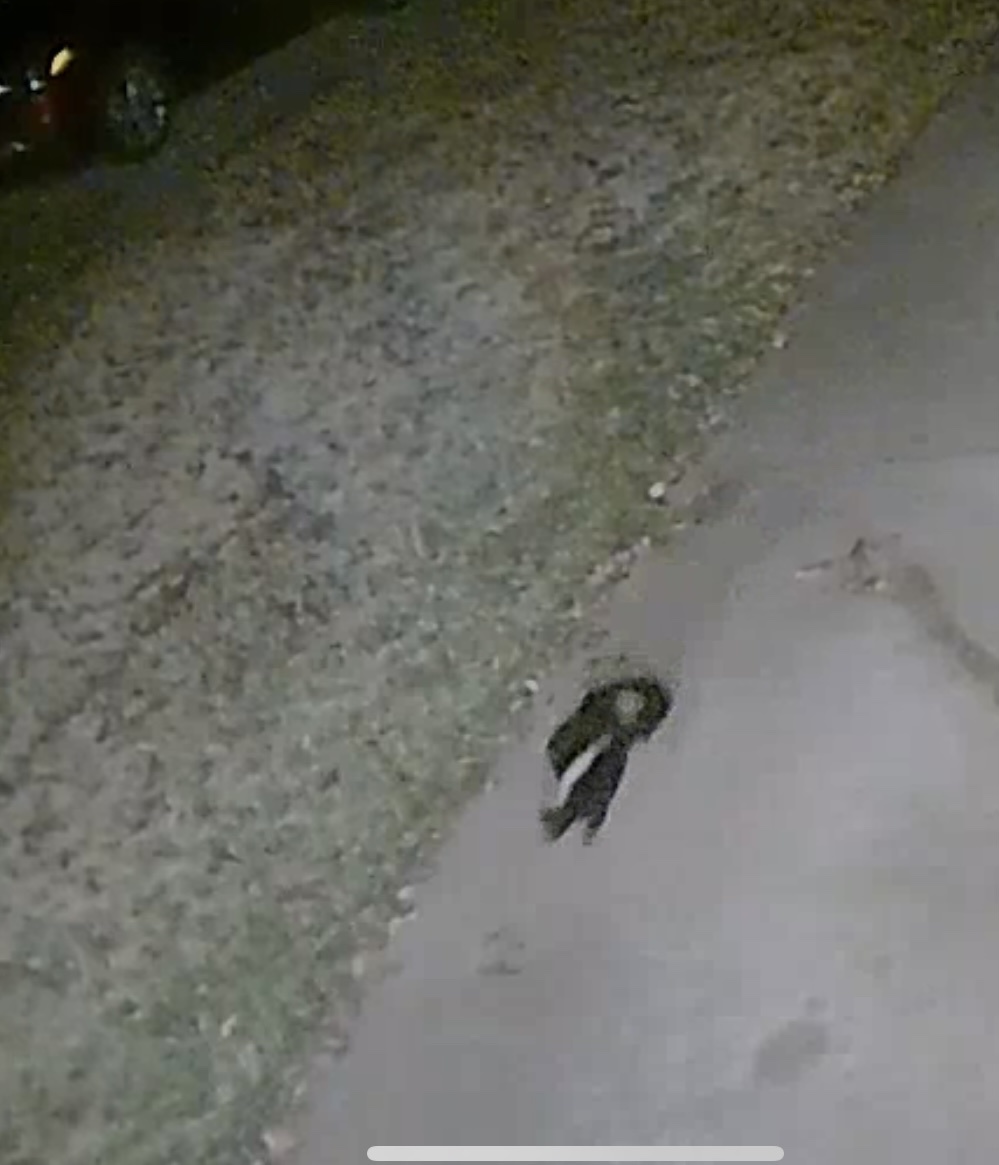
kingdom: Animalia
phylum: Chordata
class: Mammalia
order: Carnivora
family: Mephitidae
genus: Mephitis
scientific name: Mephitis mephitis
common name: Striped skunk
